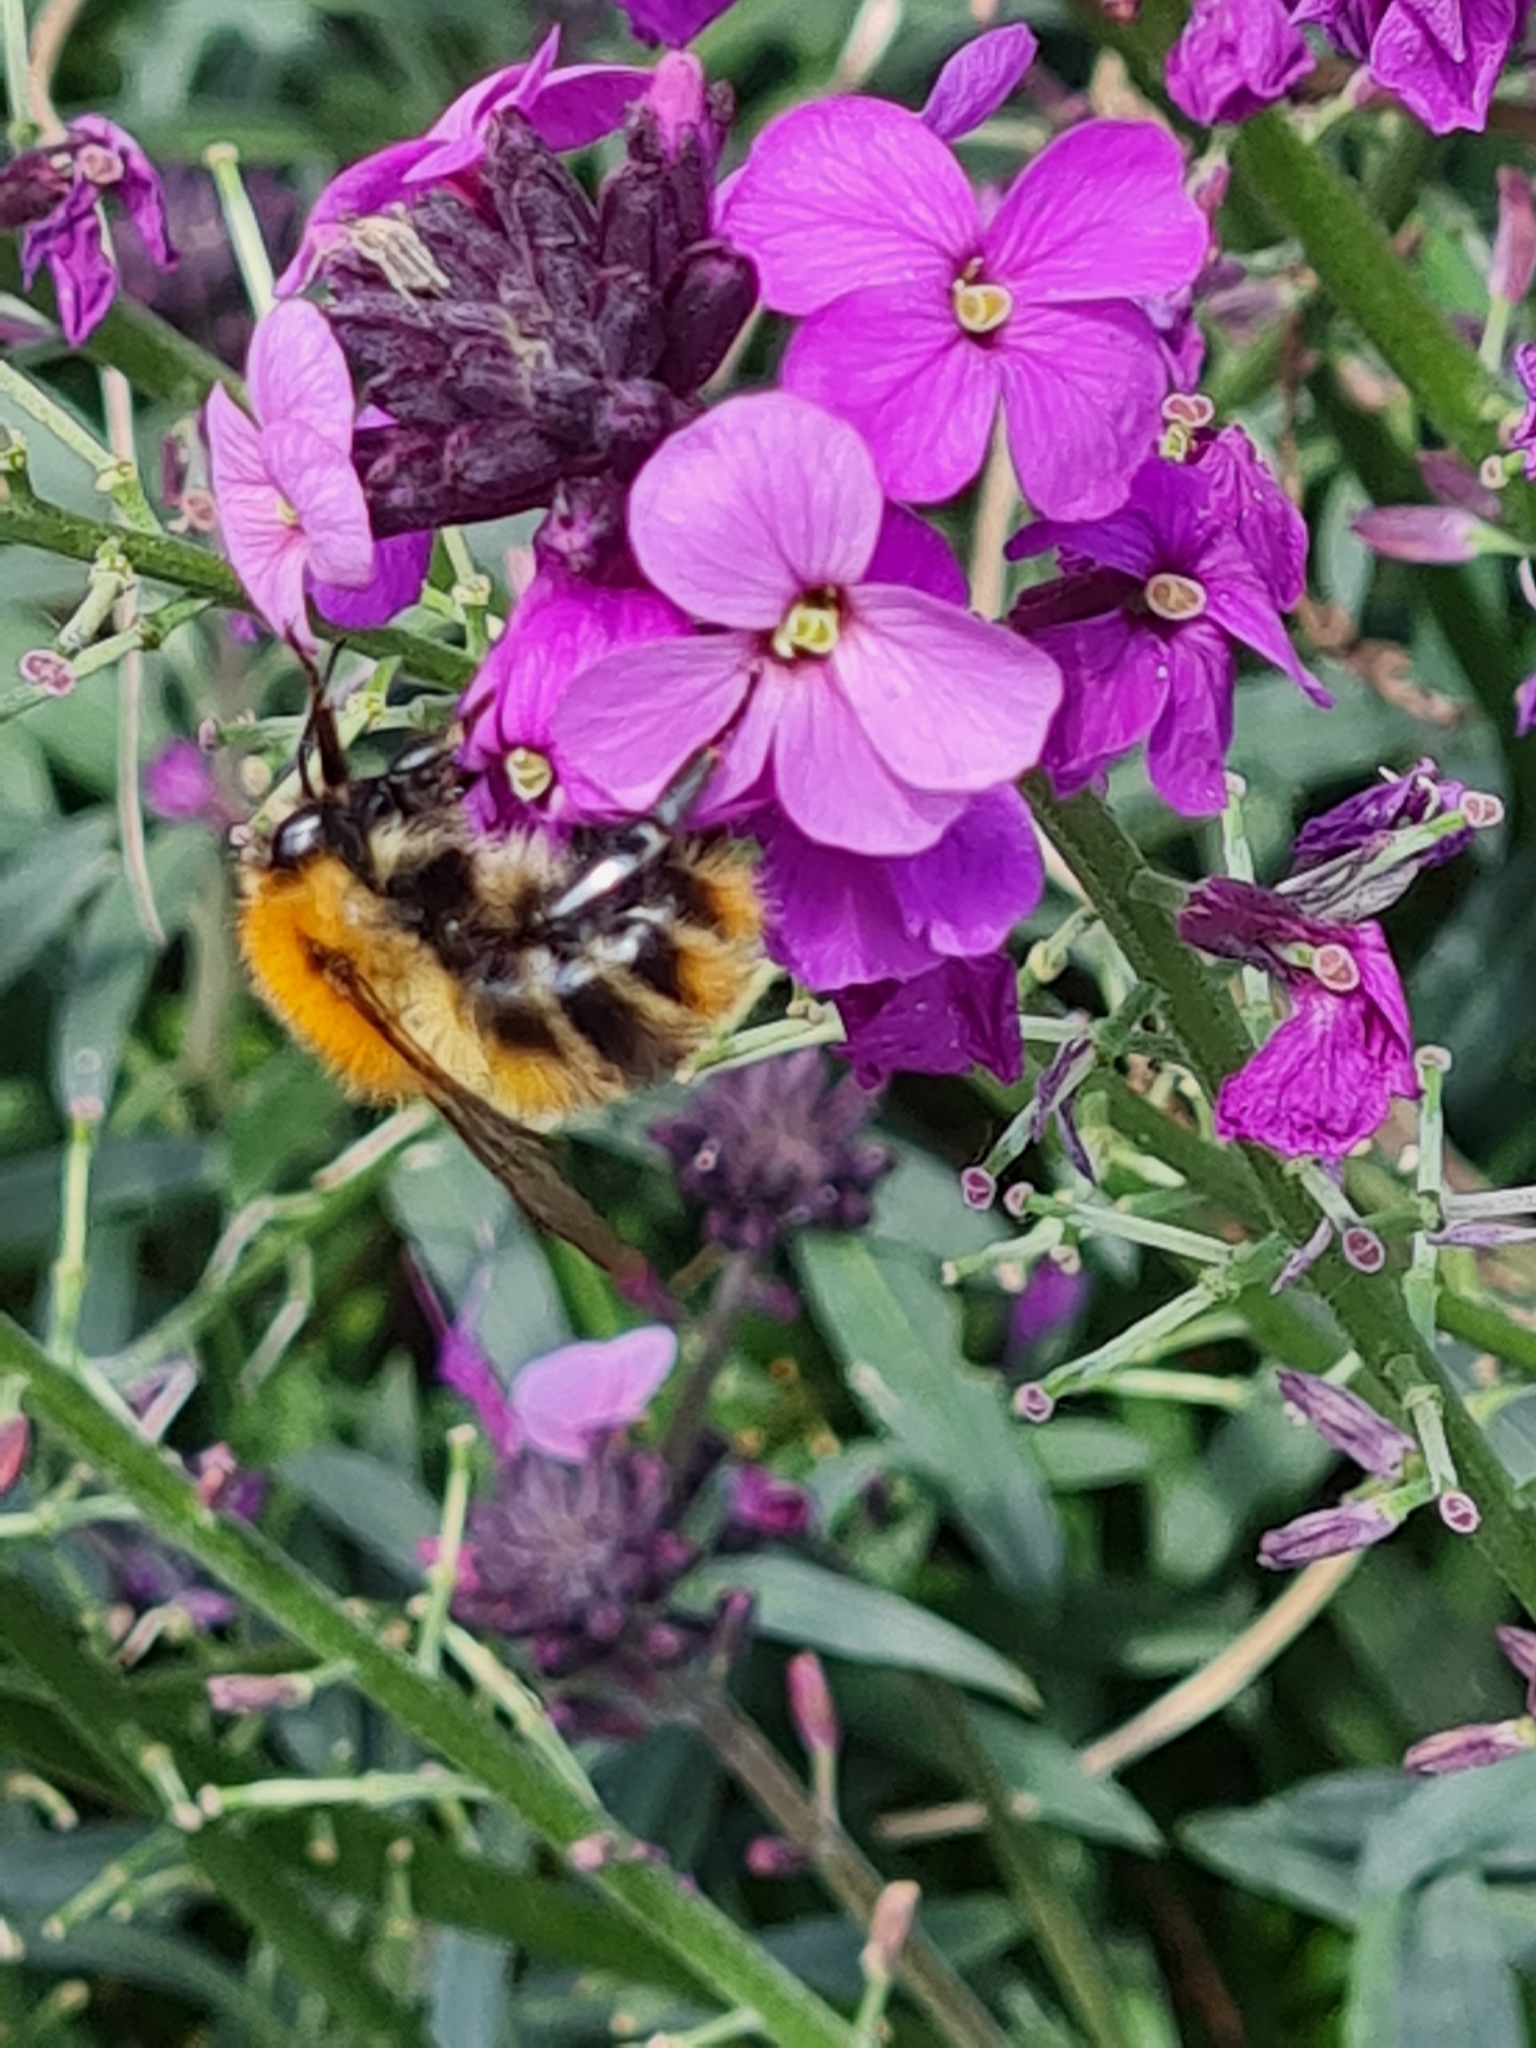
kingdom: Animalia
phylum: Arthropoda
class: Insecta
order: Hymenoptera
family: Apidae
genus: Bombus
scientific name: Bombus pascuorum
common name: Common carder bee
